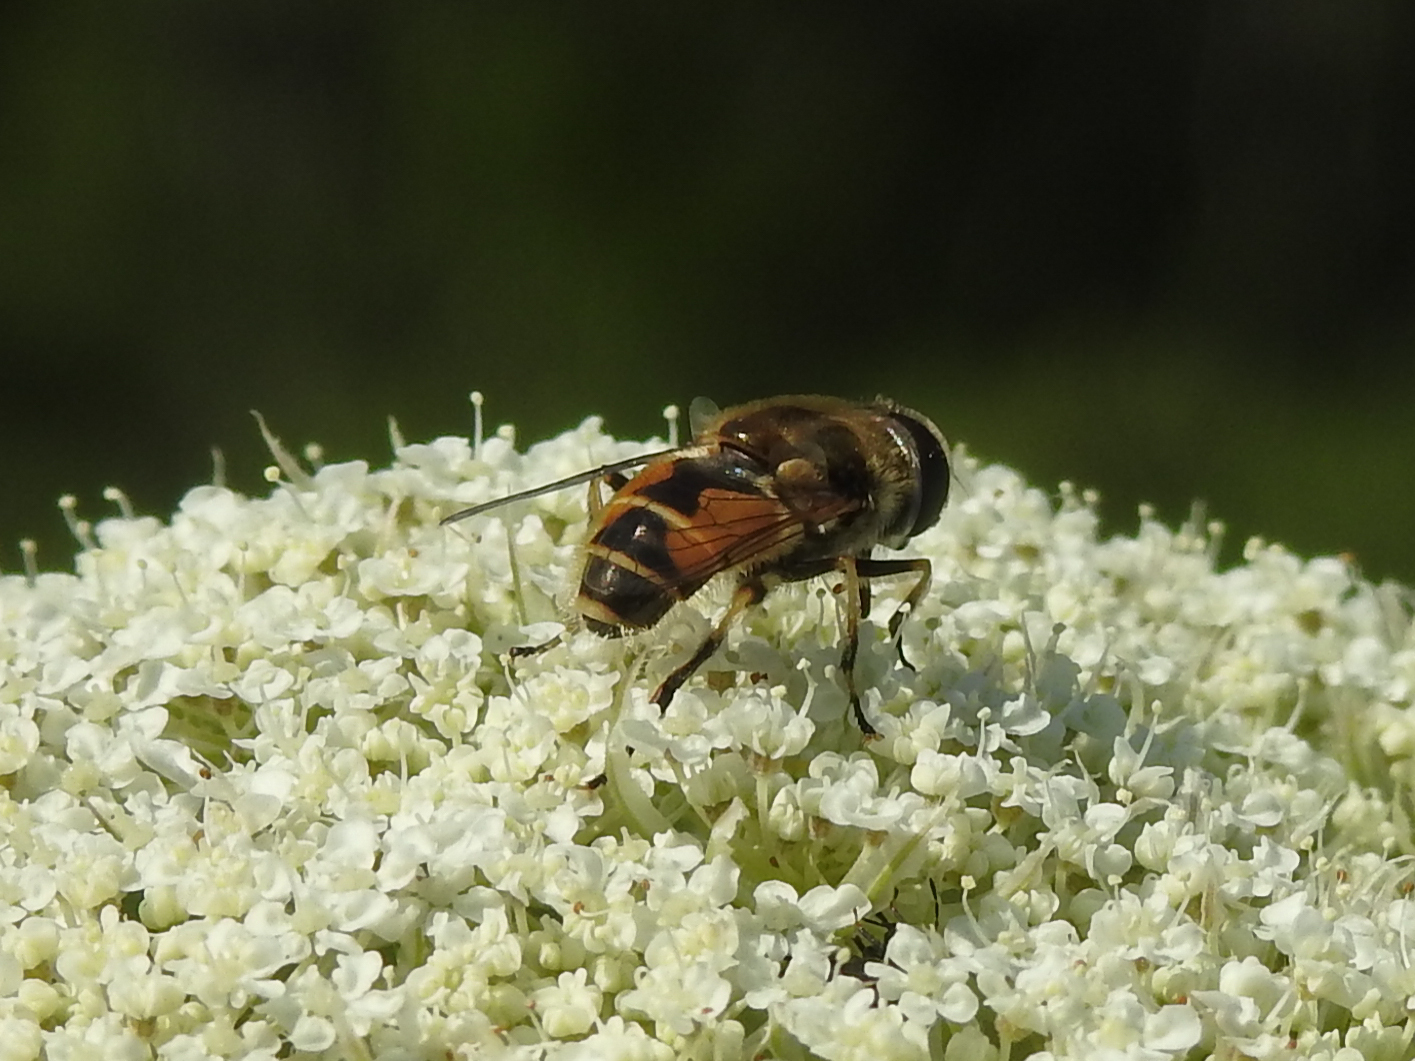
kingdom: Animalia
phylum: Arthropoda
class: Insecta
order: Diptera
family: Syrphidae
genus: Eristalis
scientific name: Eristalis arbustorum
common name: Hover fly
